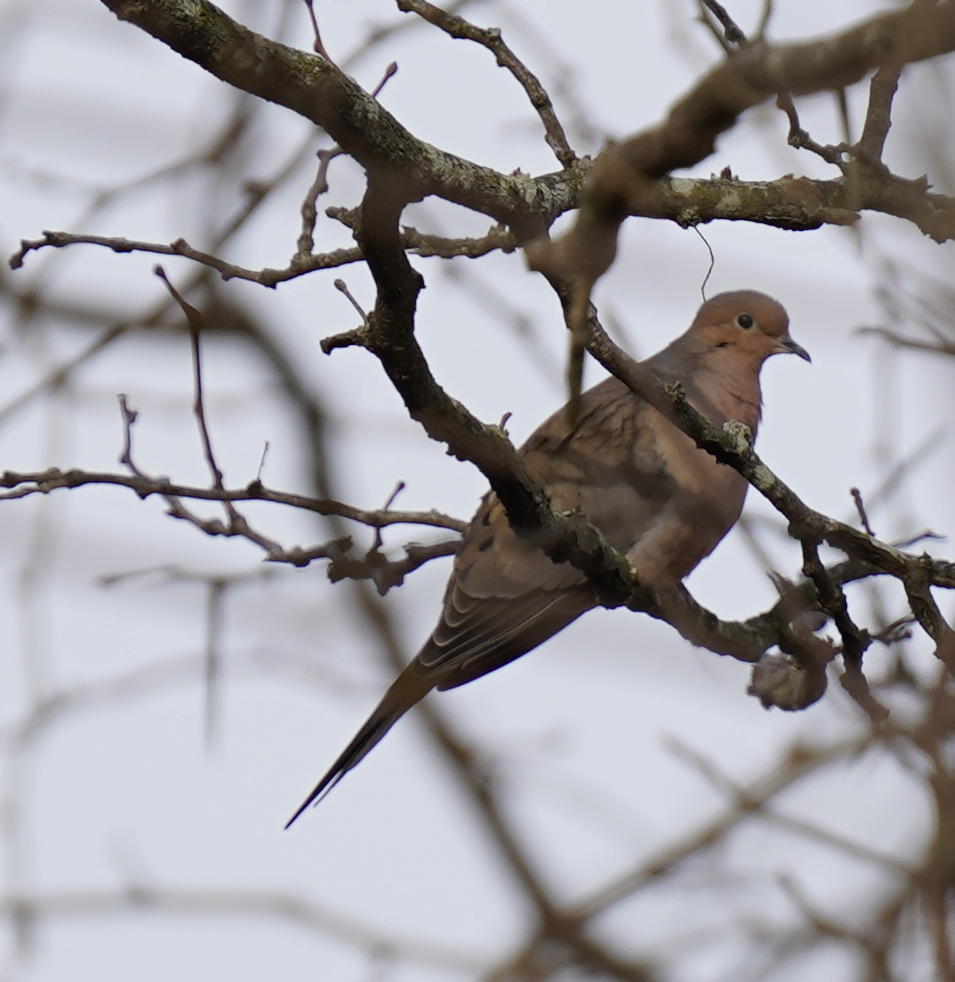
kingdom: Animalia
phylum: Chordata
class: Aves
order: Columbiformes
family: Columbidae
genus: Zenaida
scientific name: Zenaida macroura
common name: Mourning dove
